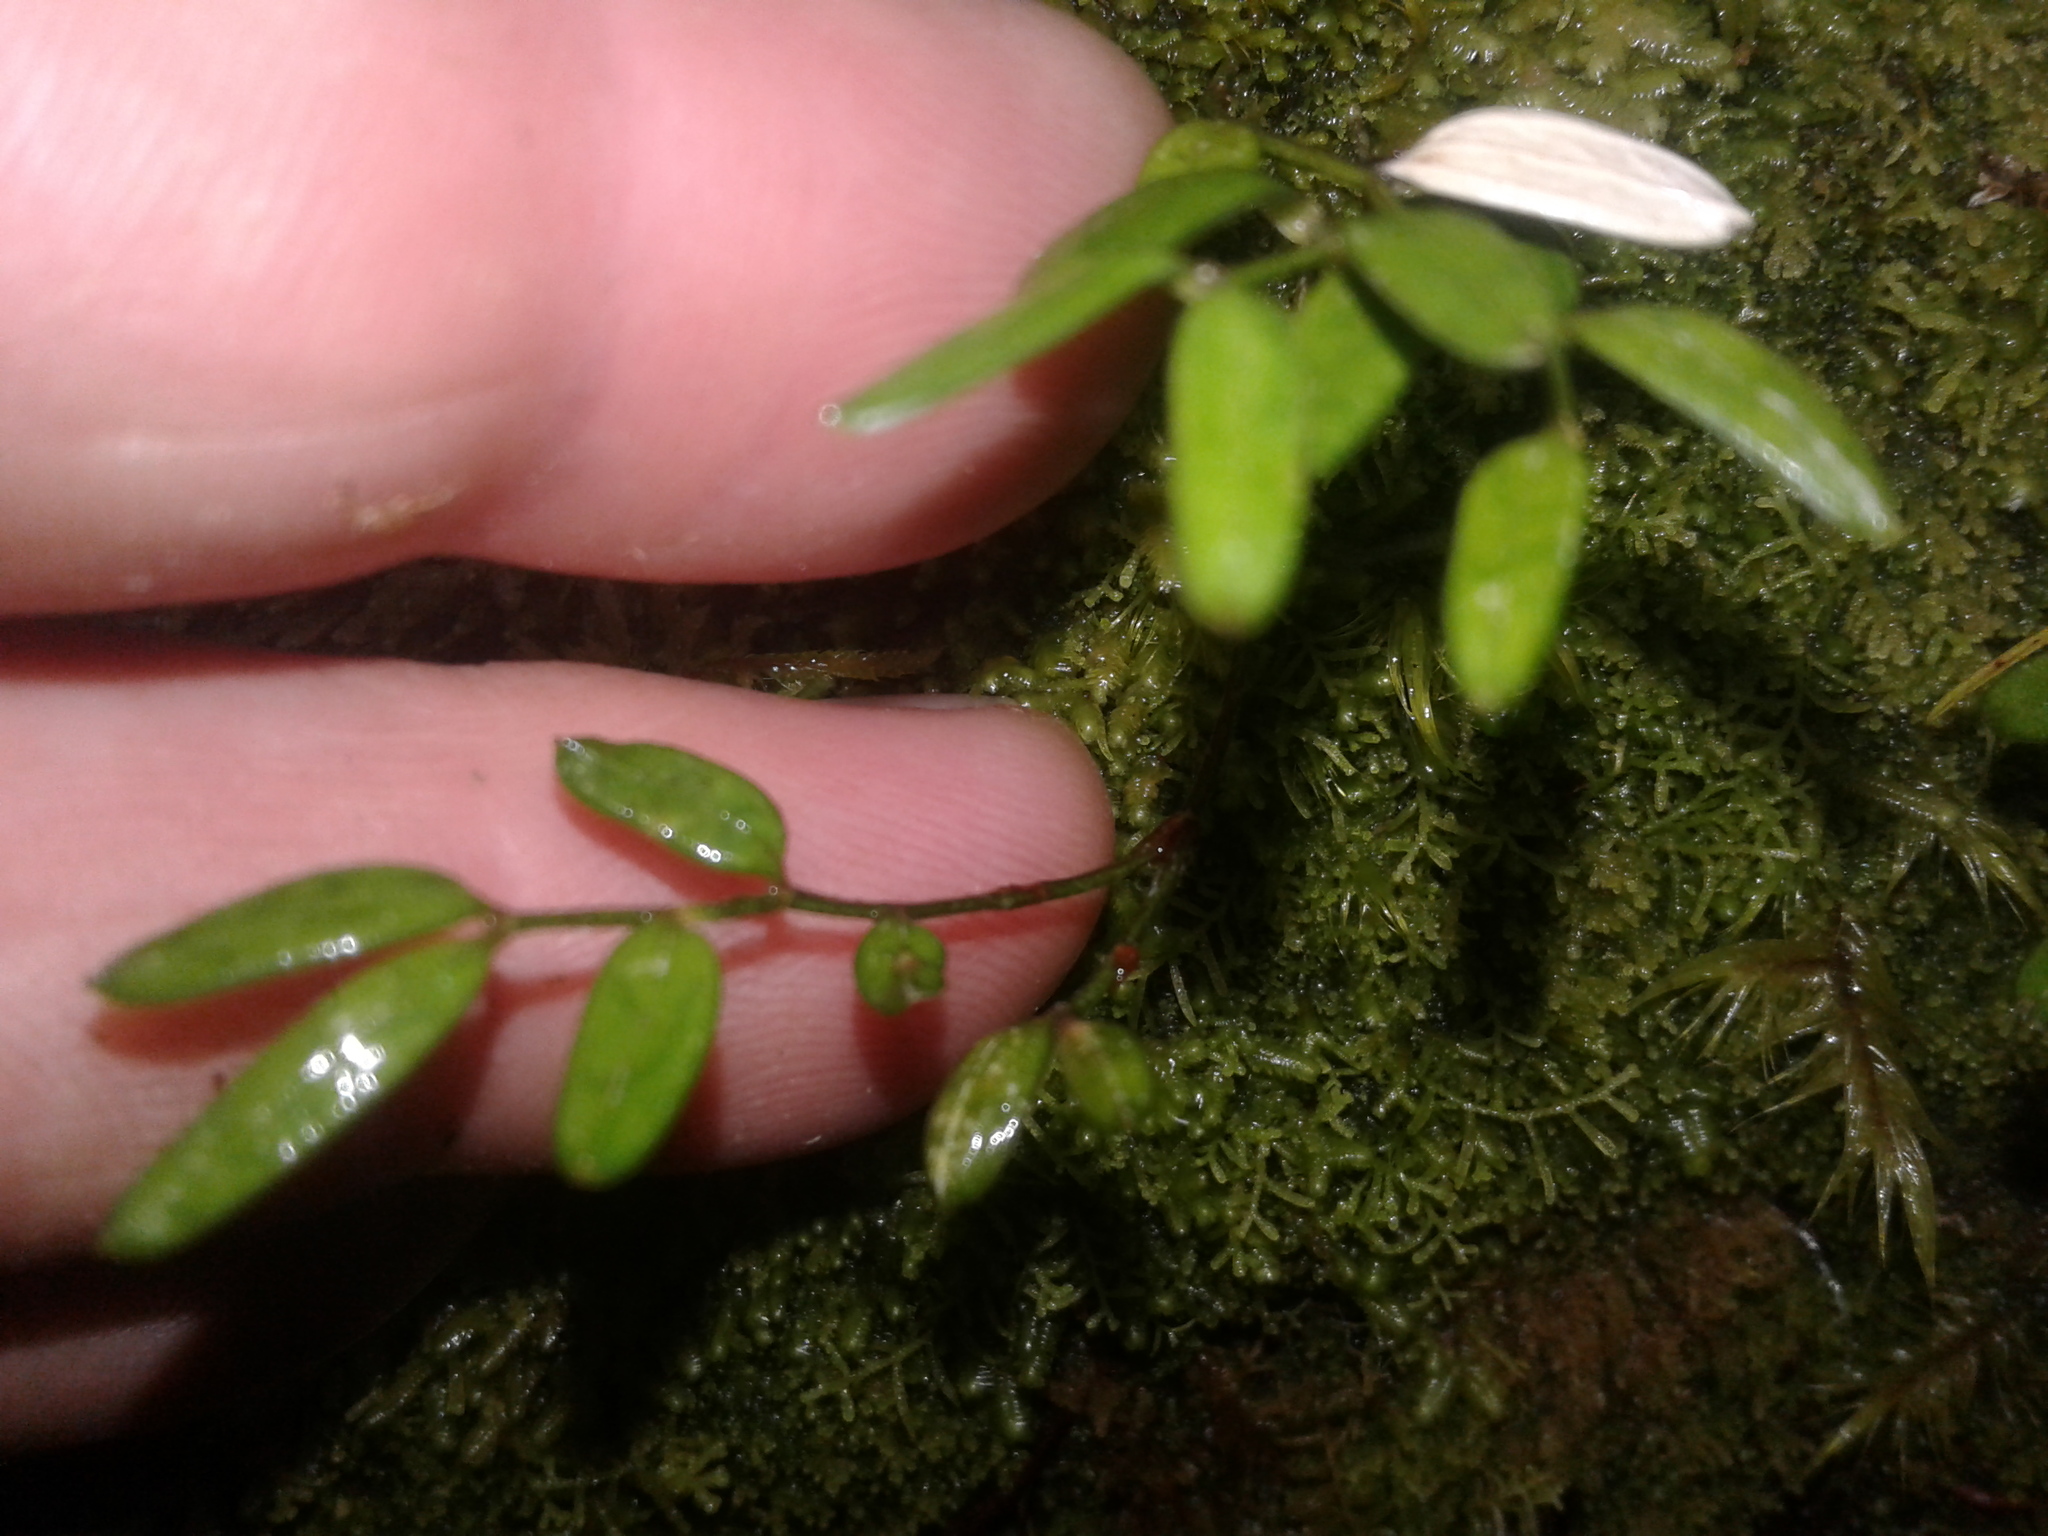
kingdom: Plantae
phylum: Tracheophyta
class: Liliopsida
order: Liliales
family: Alstroemeriaceae
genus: Luzuriaga
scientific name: Luzuriaga parviflora
